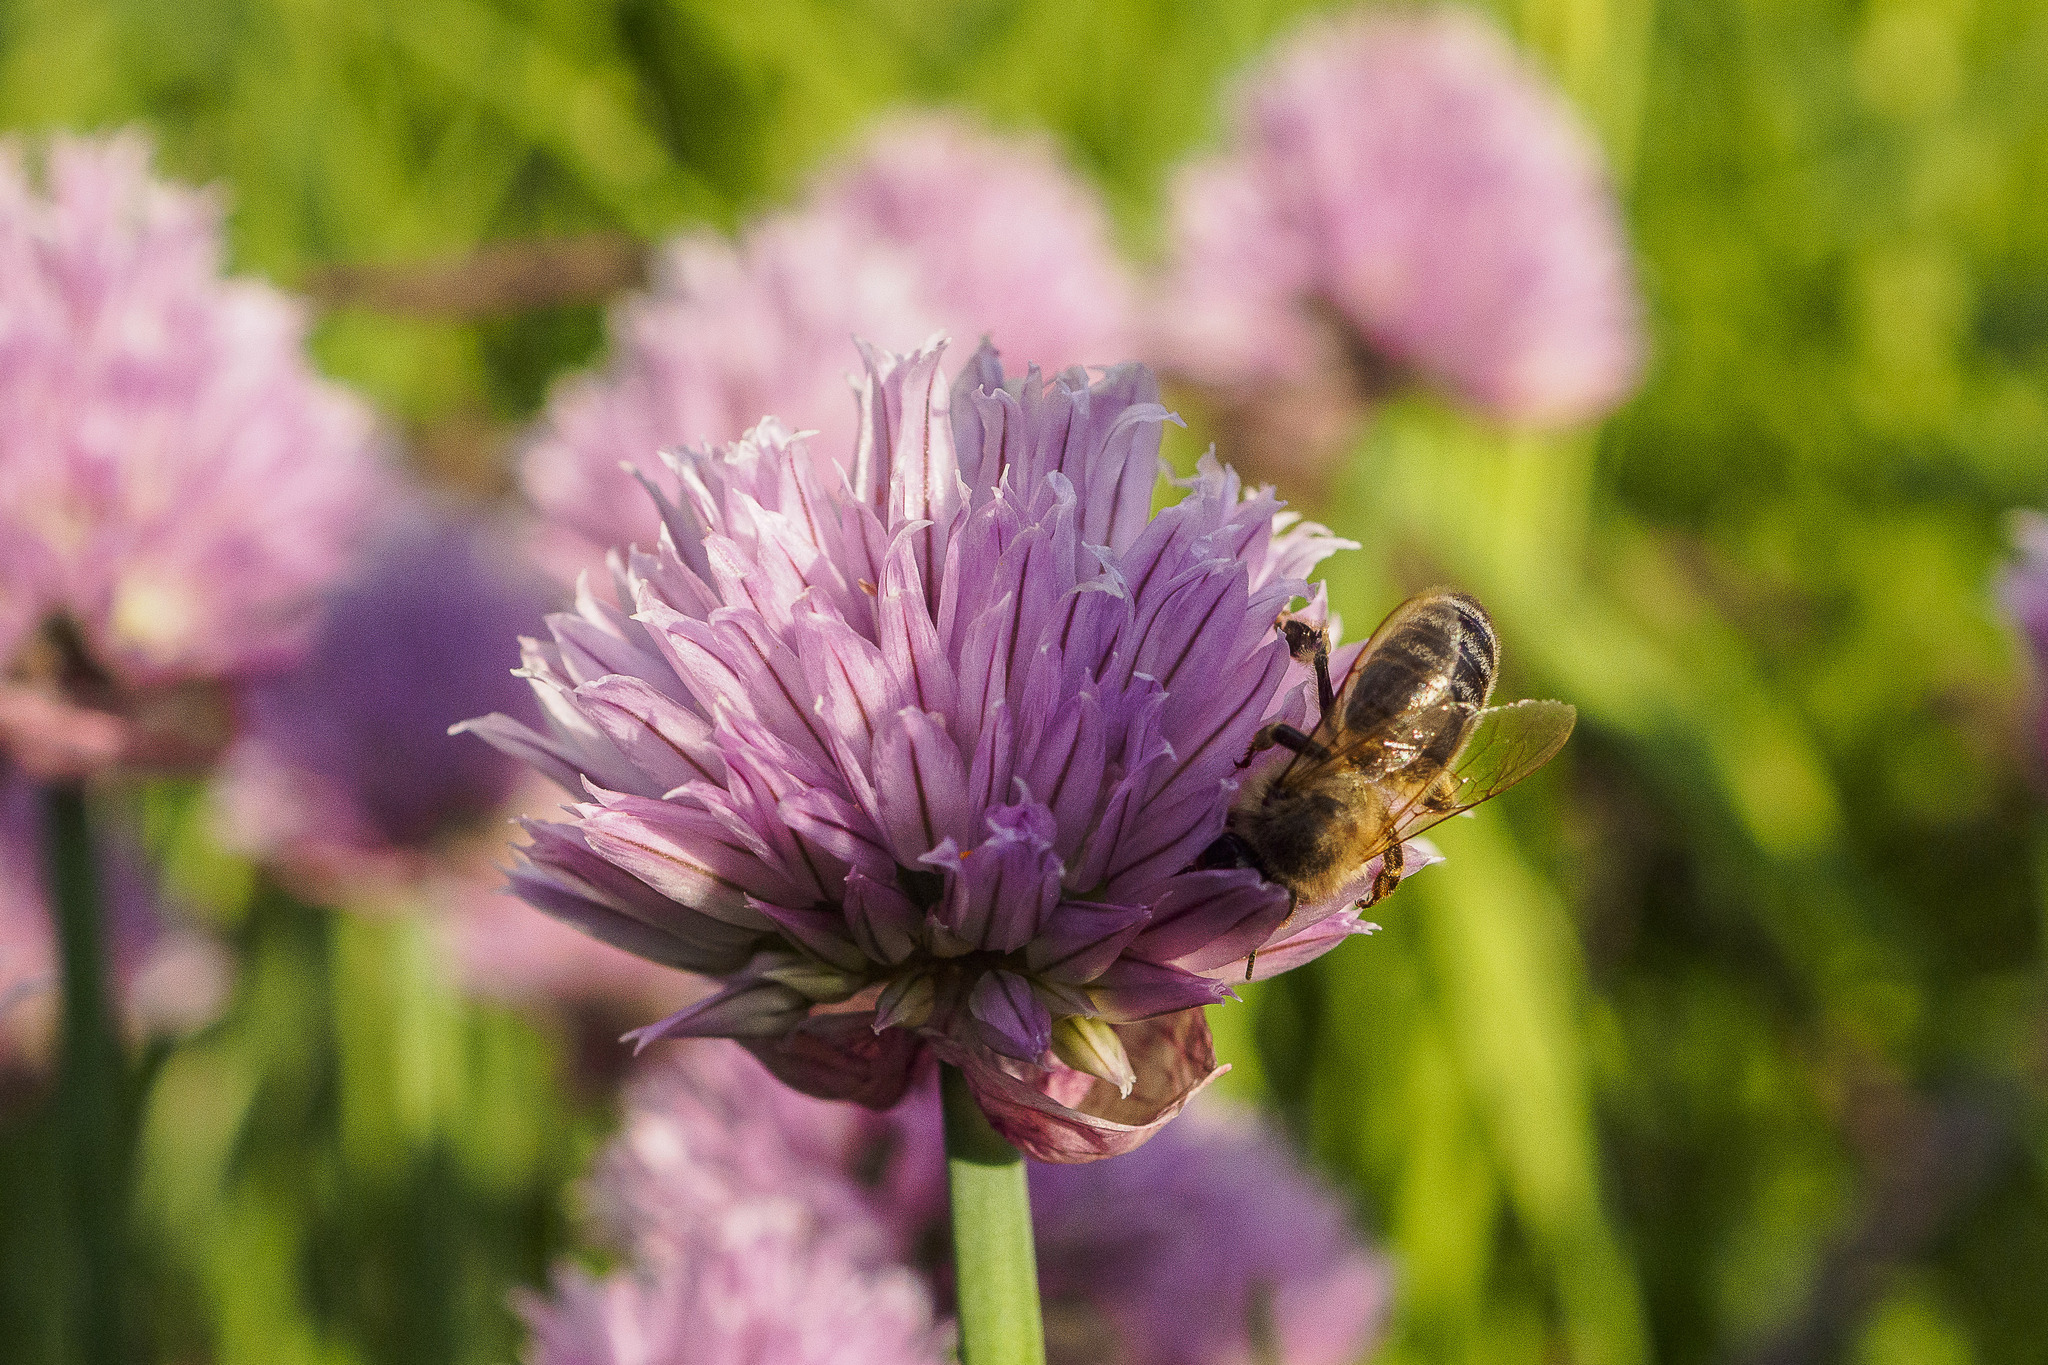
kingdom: Animalia
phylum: Arthropoda
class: Insecta
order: Hymenoptera
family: Apidae
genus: Apis
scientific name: Apis mellifera
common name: Honey bee
